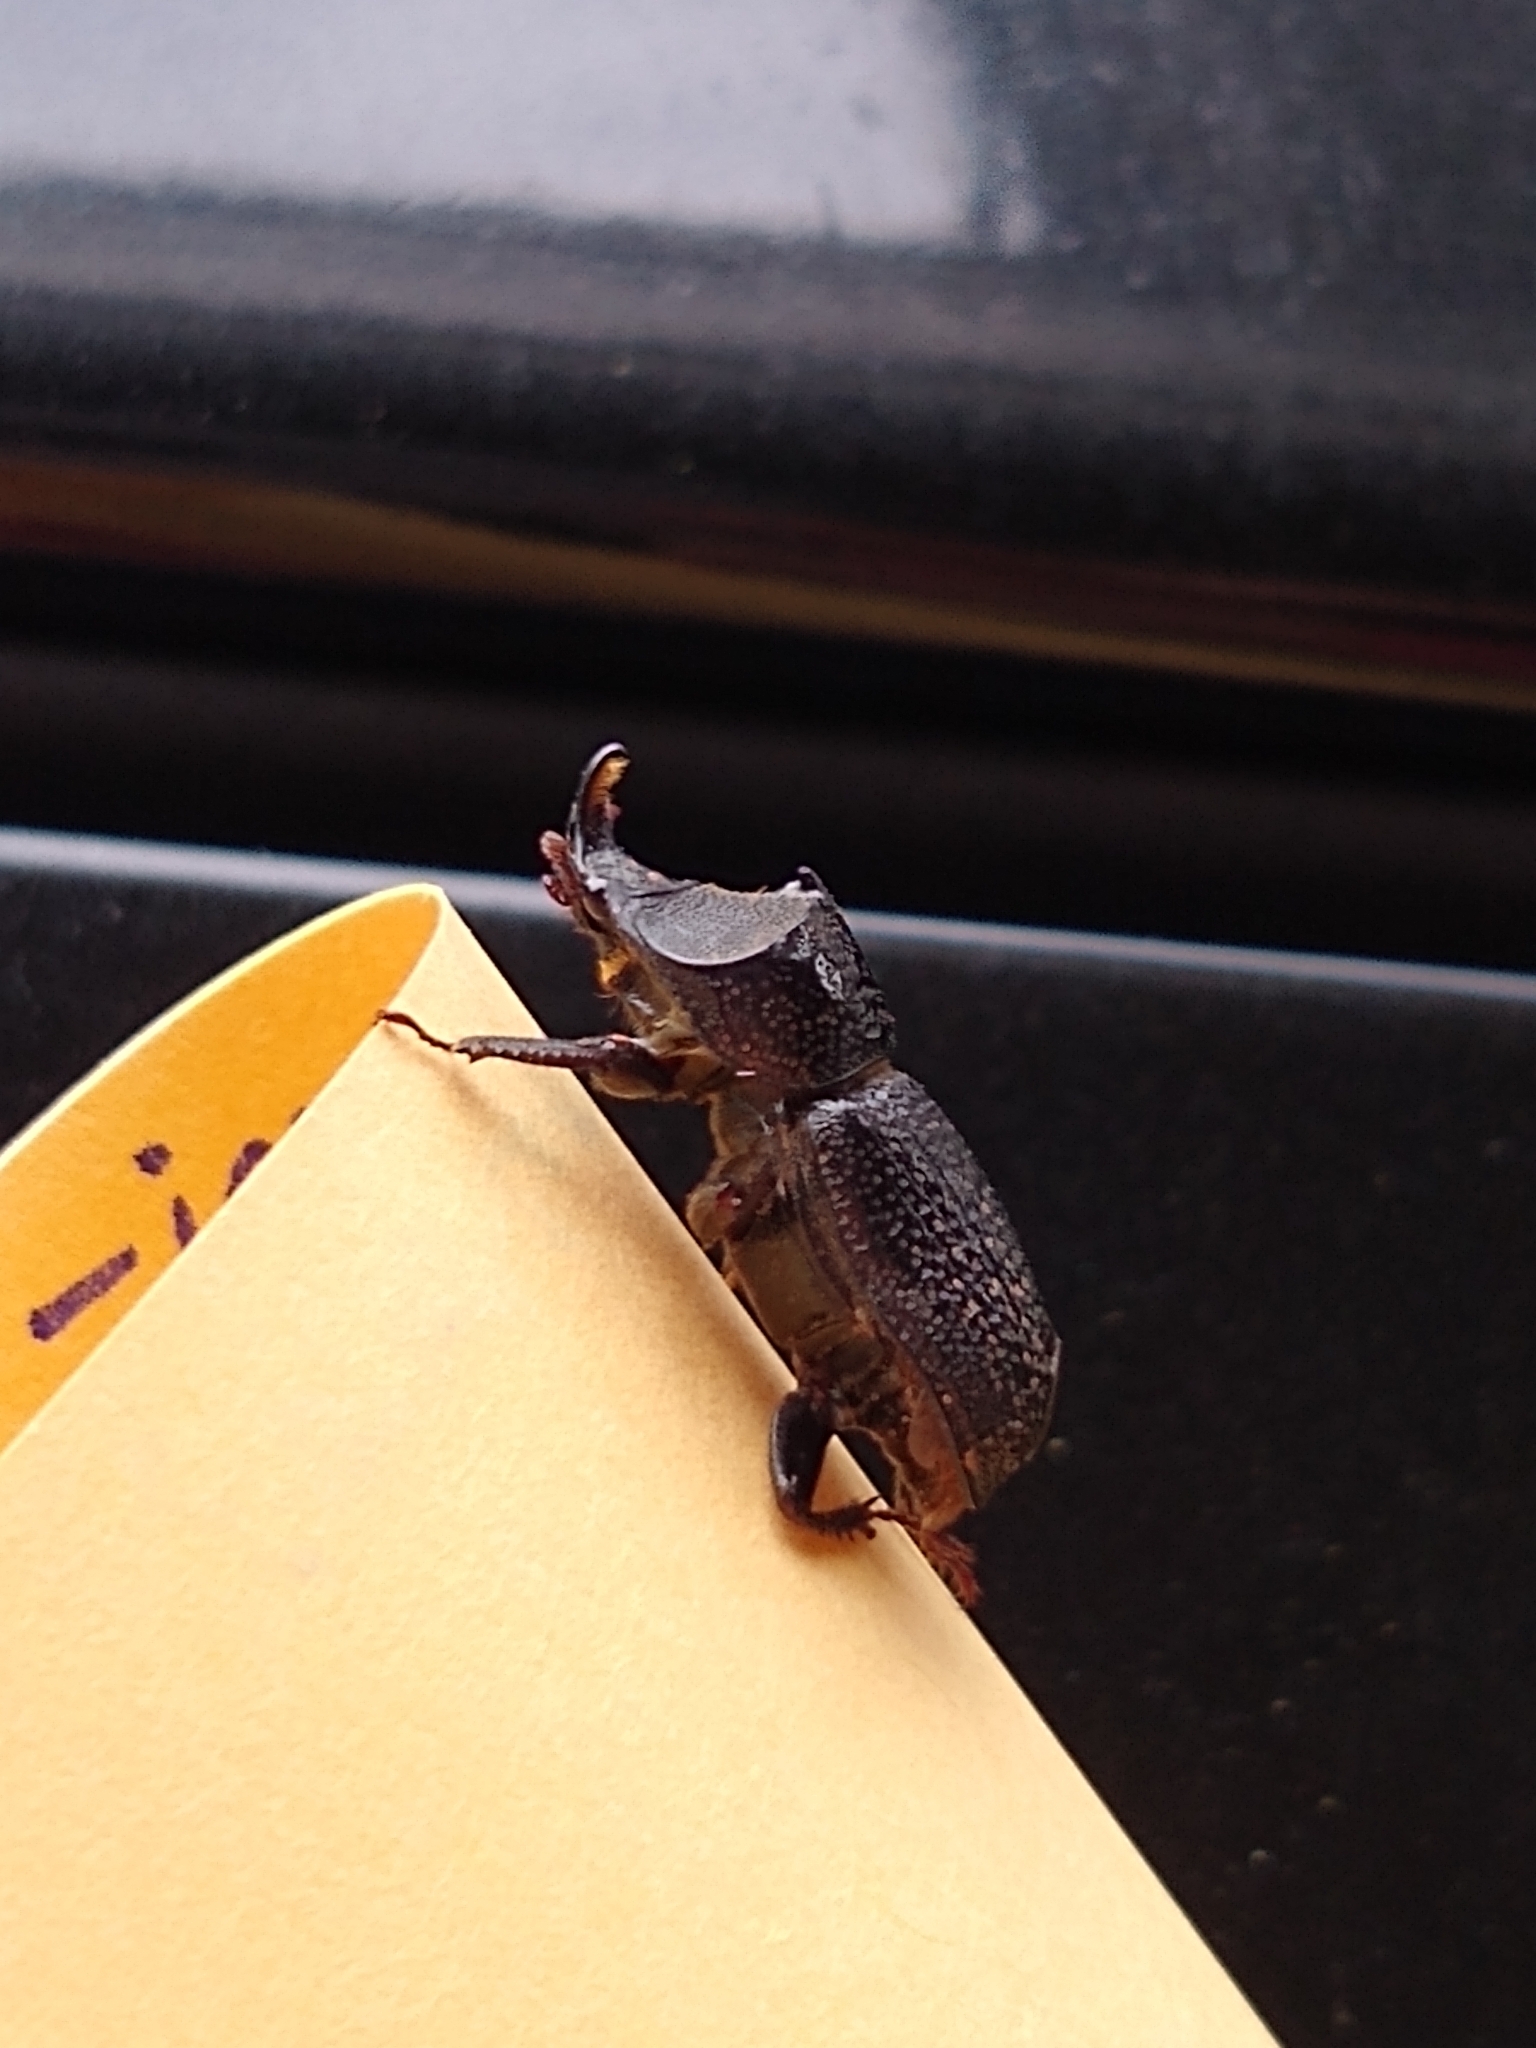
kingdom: Animalia
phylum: Arthropoda
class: Insecta
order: Coleoptera
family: Lucanidae
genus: Sinodendron
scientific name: Sinodendron rugosum
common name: Rugose stag beelte
